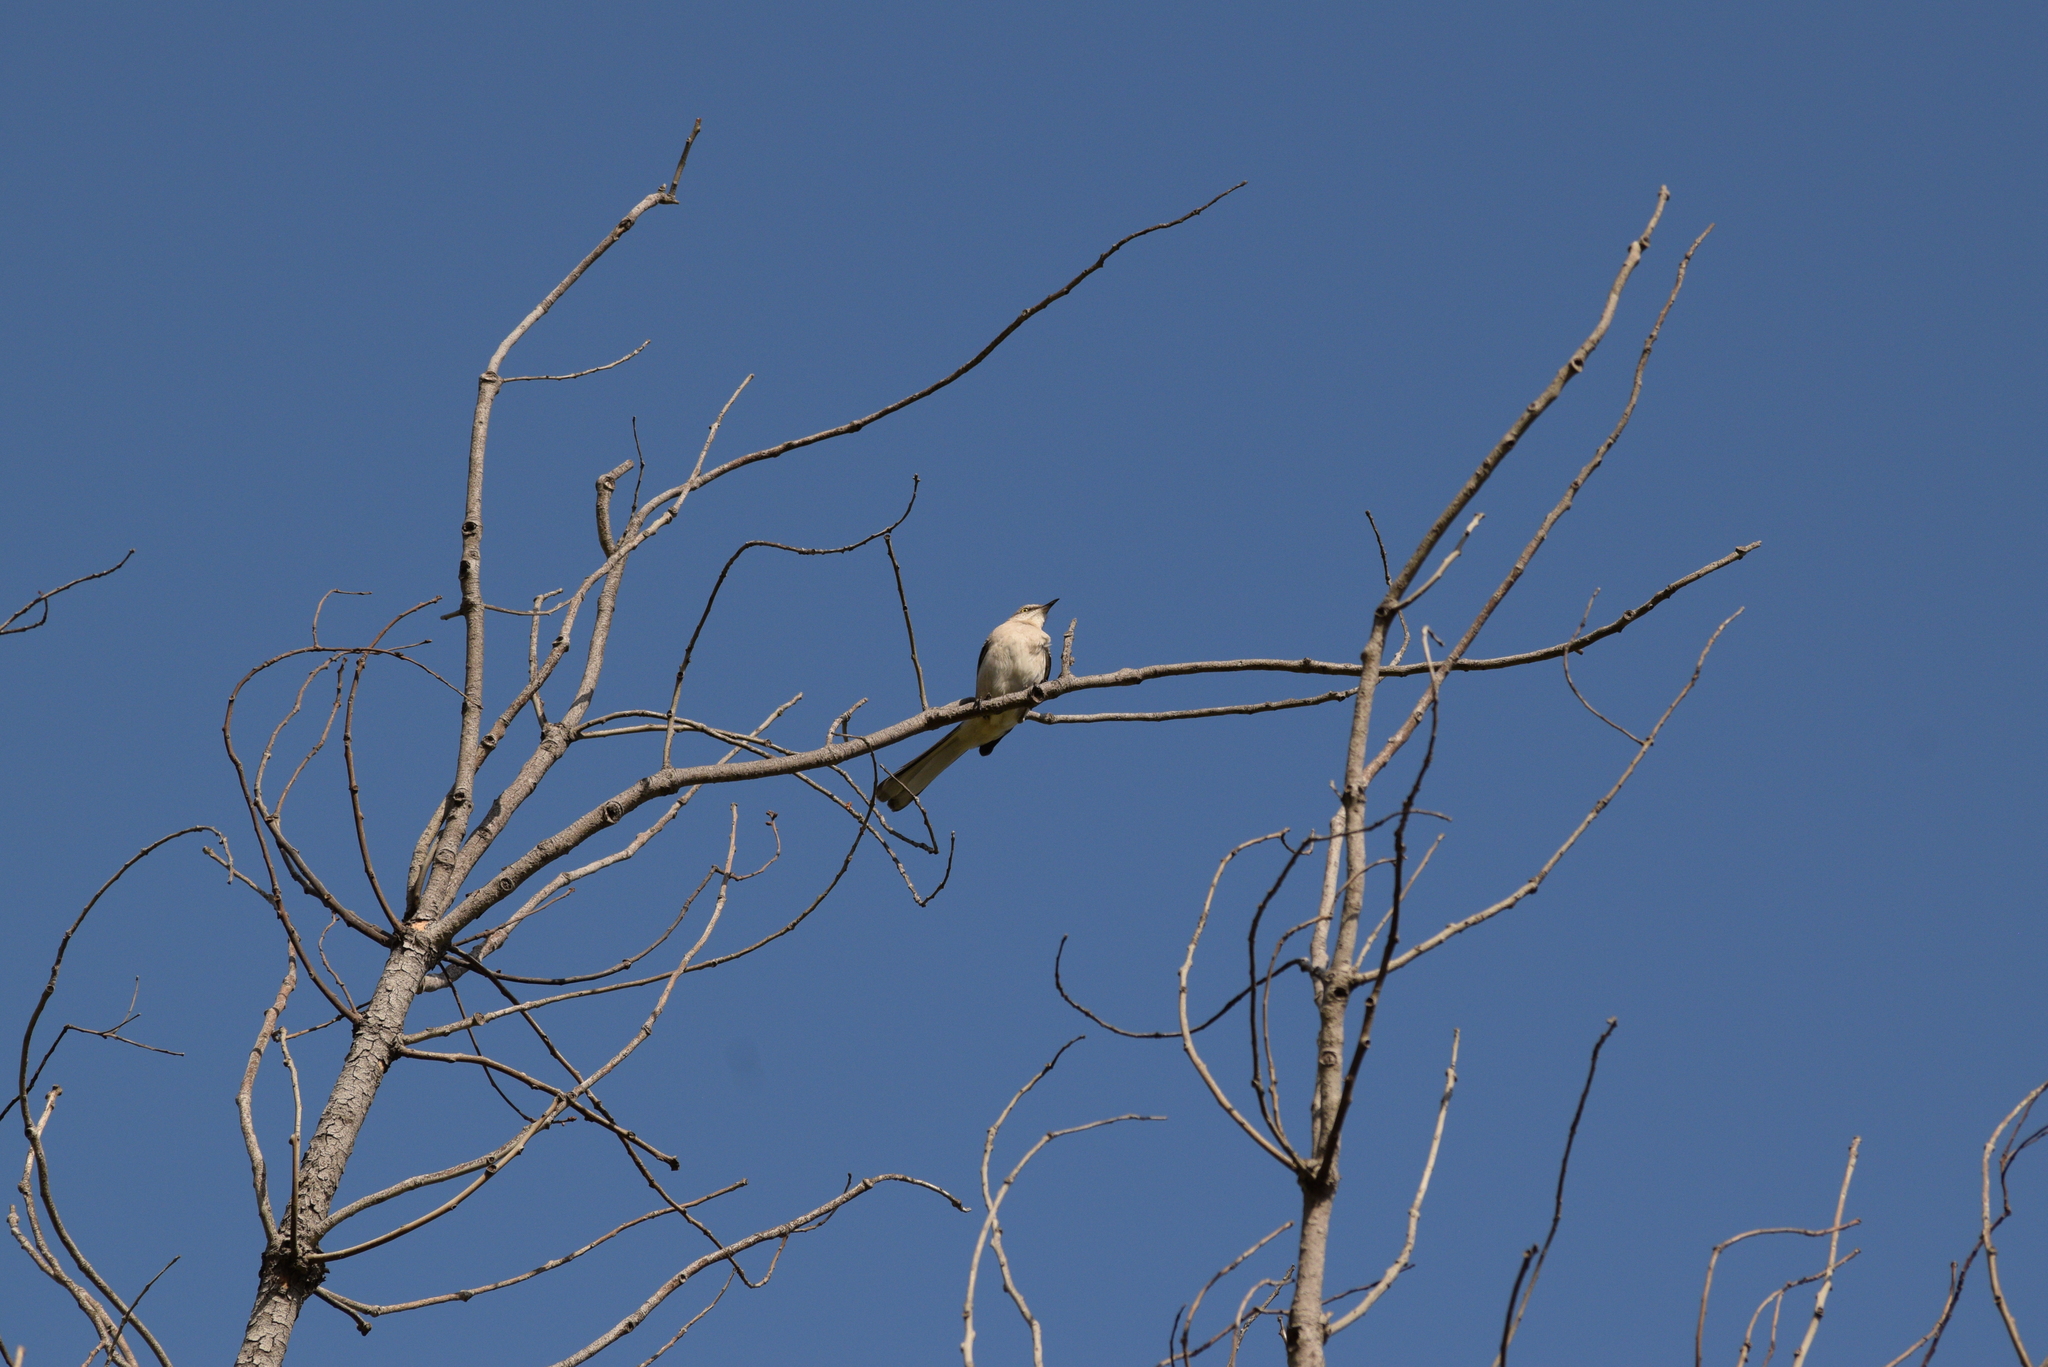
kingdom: Animalia
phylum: Chordata
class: Aves
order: Passeriformes
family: Mimidae
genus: Mimus
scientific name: Mimus polyglottos
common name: Northern mockingbird
